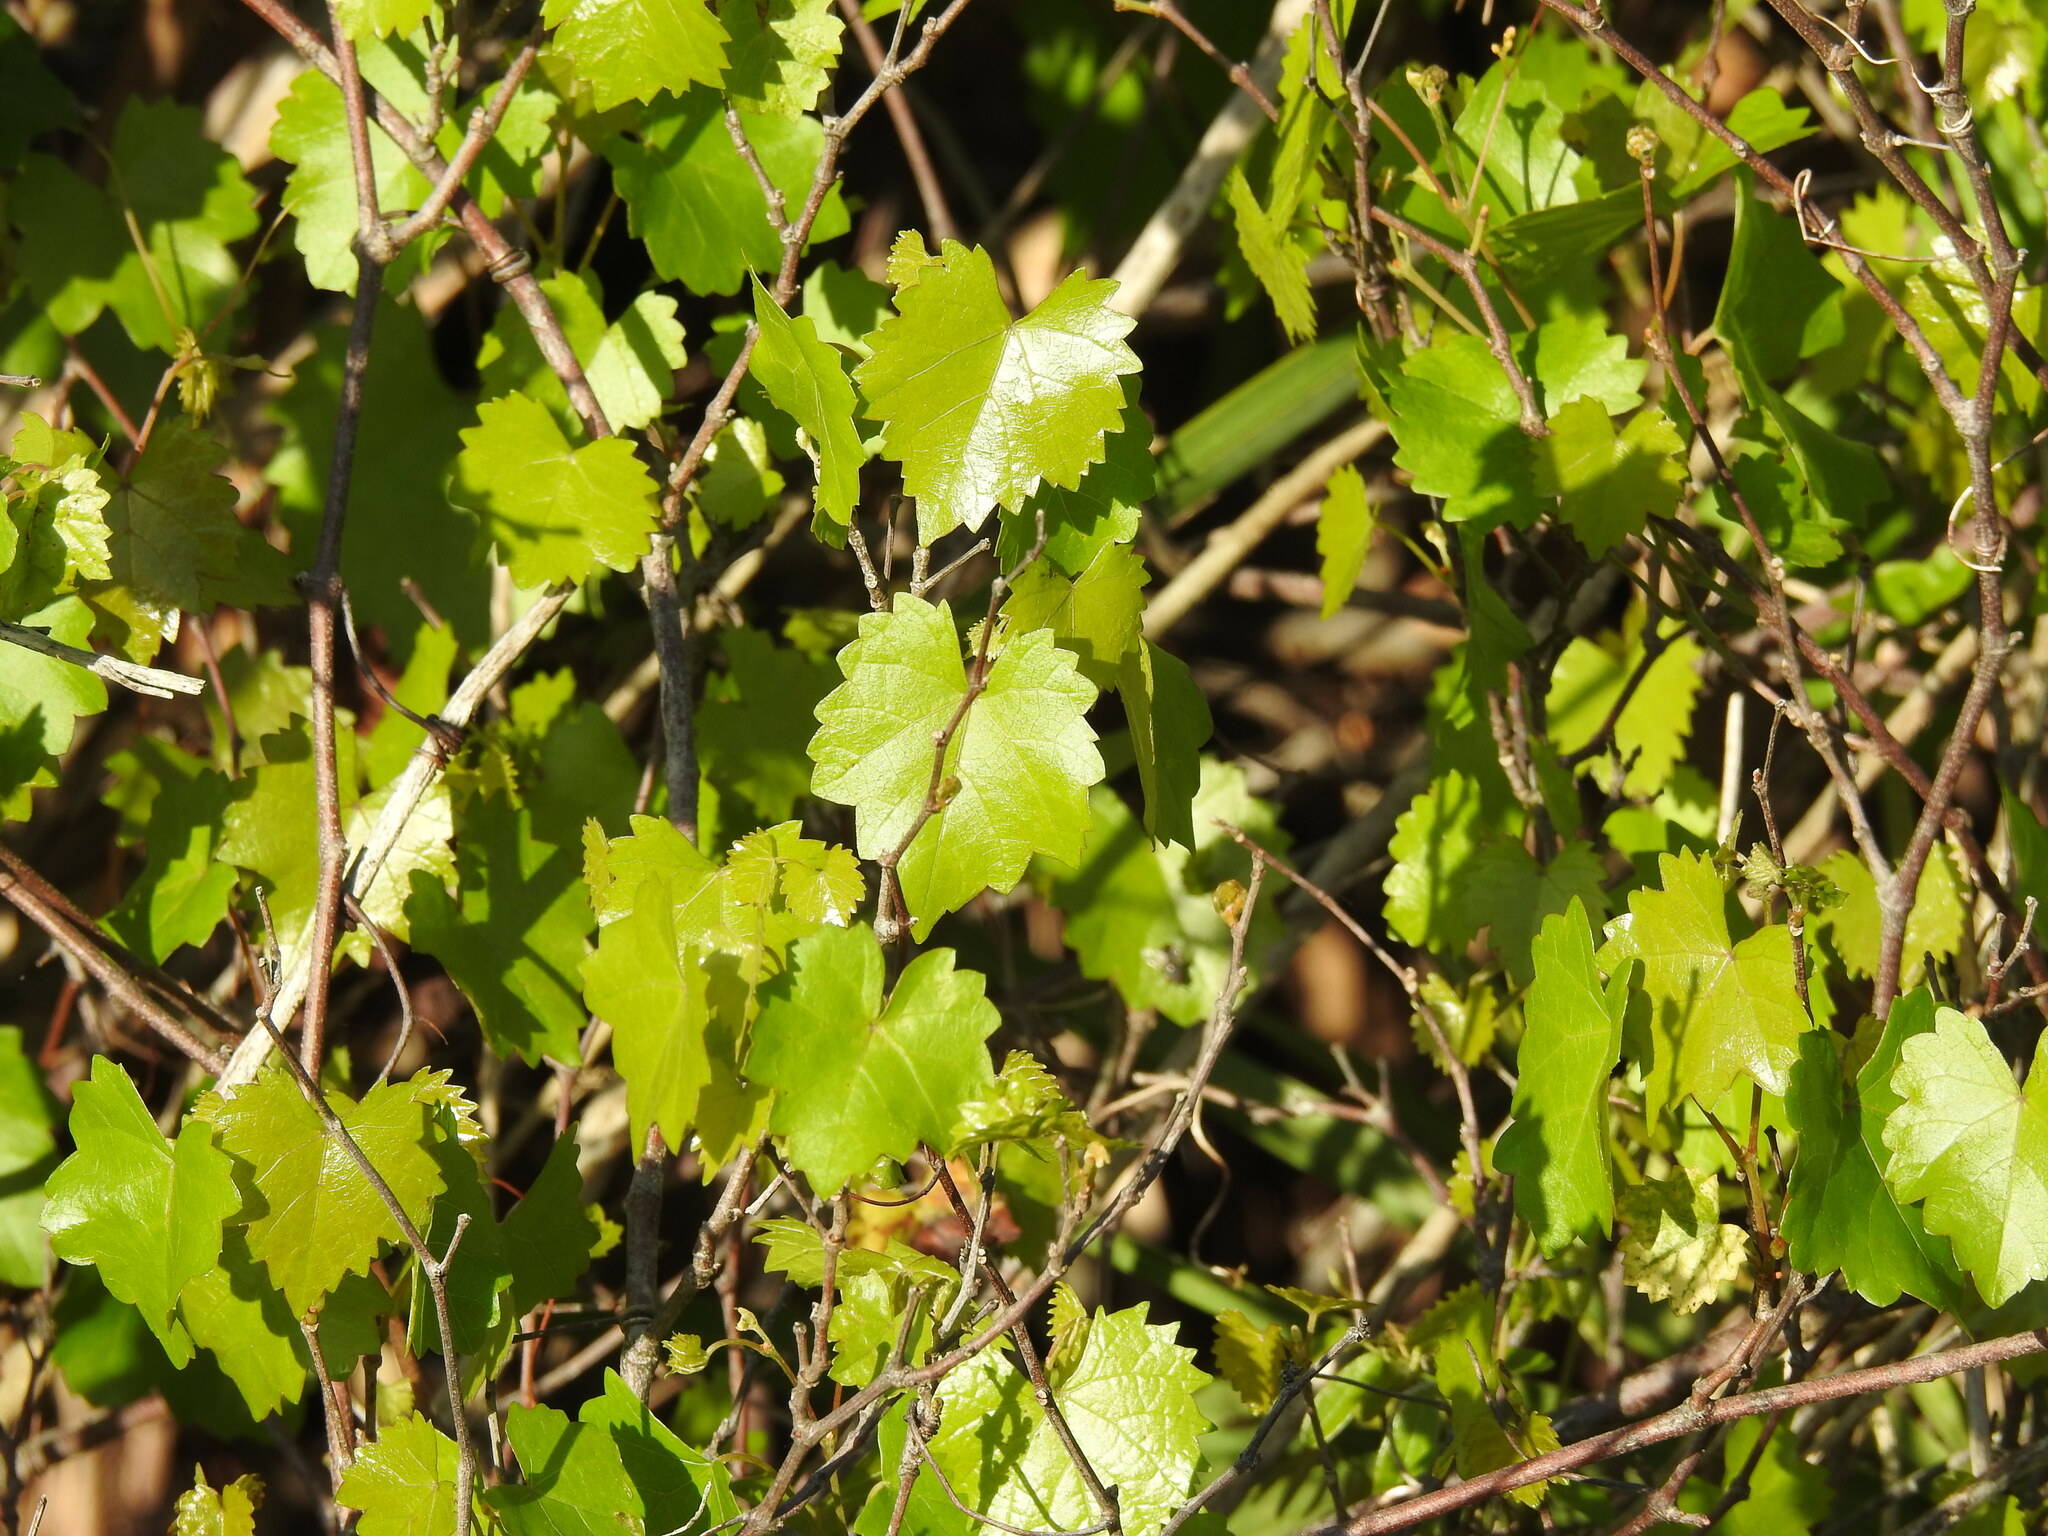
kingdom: Plantae
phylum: Tracheophyta
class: Magnoliopsida
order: Vitales
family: Vitaceae
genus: Vitis
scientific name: Vitis rotundifolia
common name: Muscadine grape
